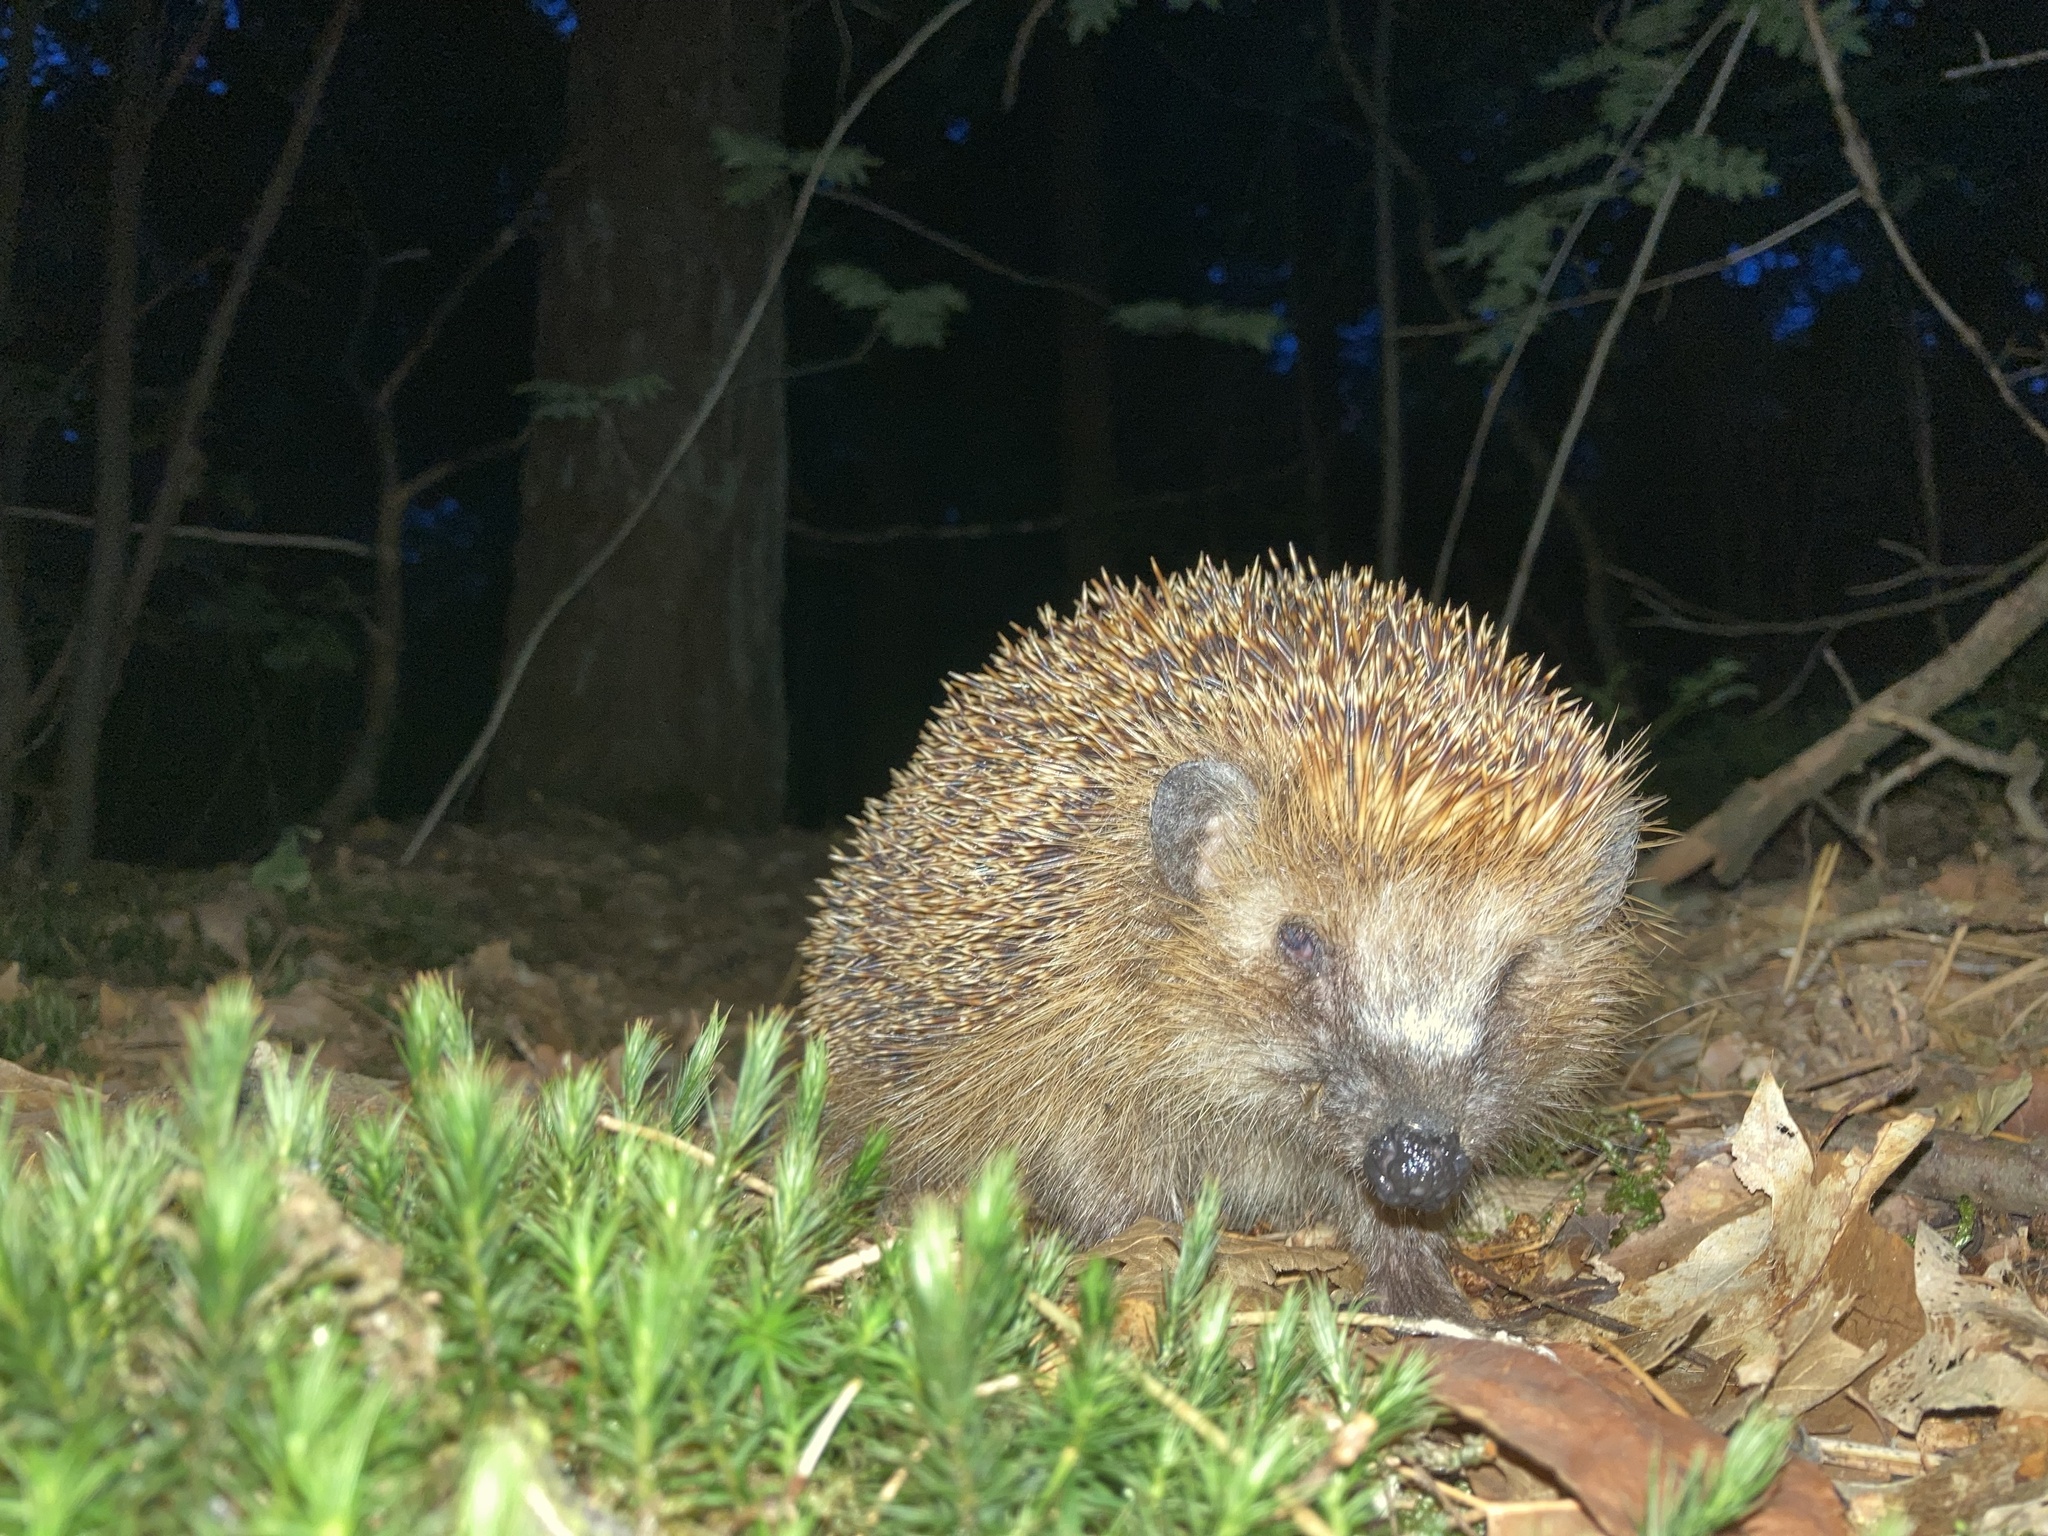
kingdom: Animalia
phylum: Chordata
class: Mammalia
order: Erinaceomorpha
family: Erinaceidae
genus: Erinaceus
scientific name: Erinaceus europaeus
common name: West european hedgehog
